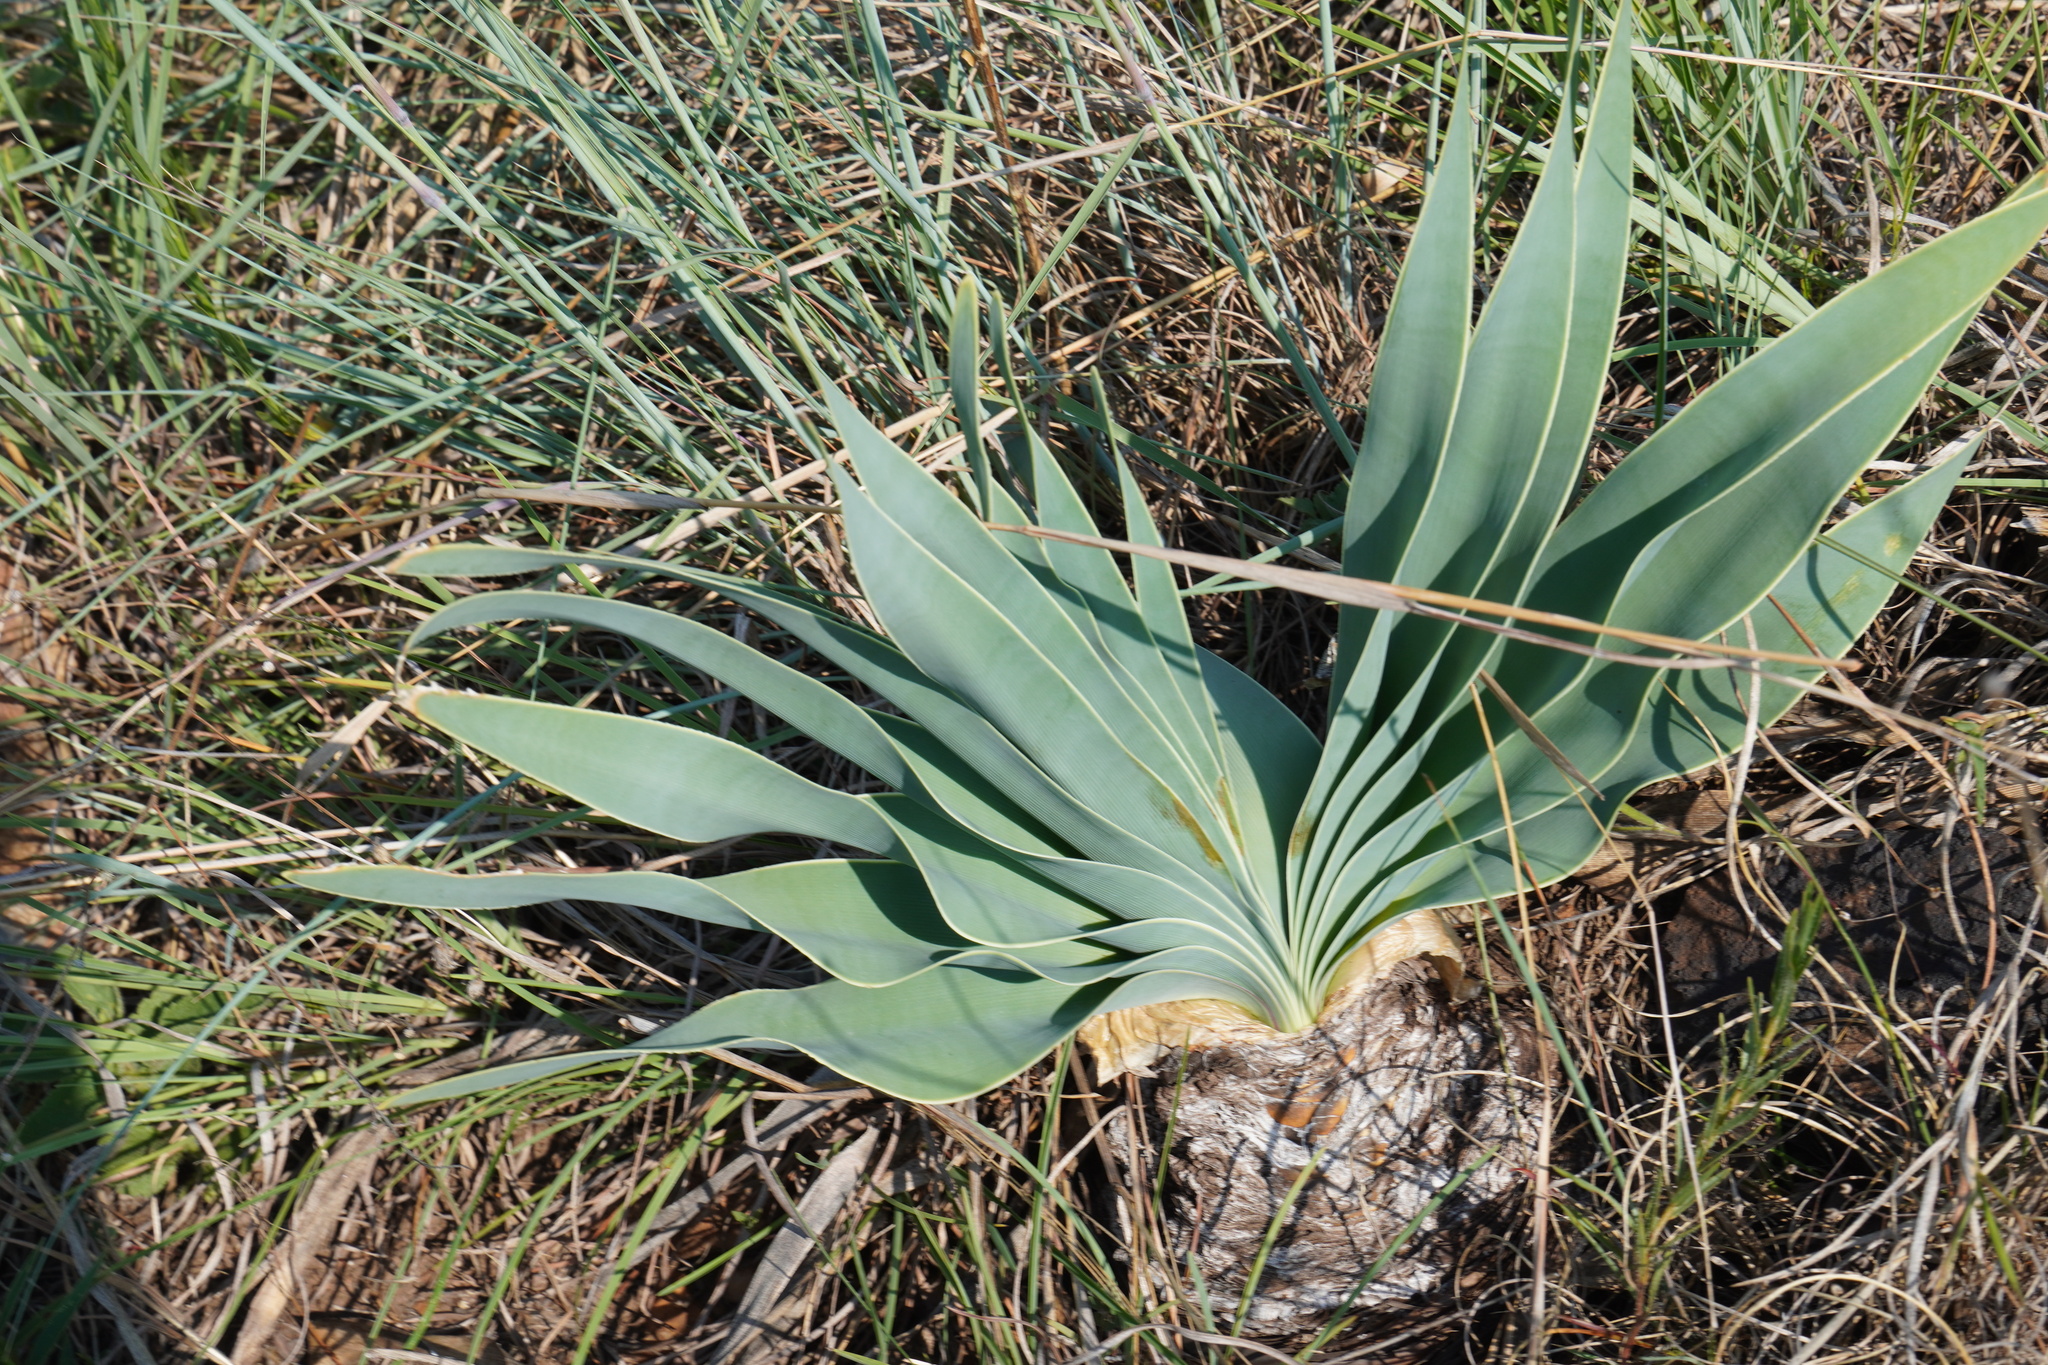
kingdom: Plantae
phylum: Tracheophyta
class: Liliopsida
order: Asparagales
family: Amaryllidaceae
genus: Boophone
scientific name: Boophone disticha
